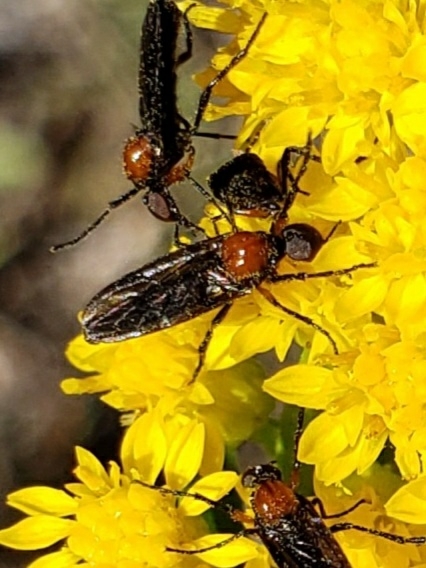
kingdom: Animalia
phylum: Arthropoda
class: Insecta
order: Diptera
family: Bibionidae
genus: Dilophus
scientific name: Dilophus spinipes
